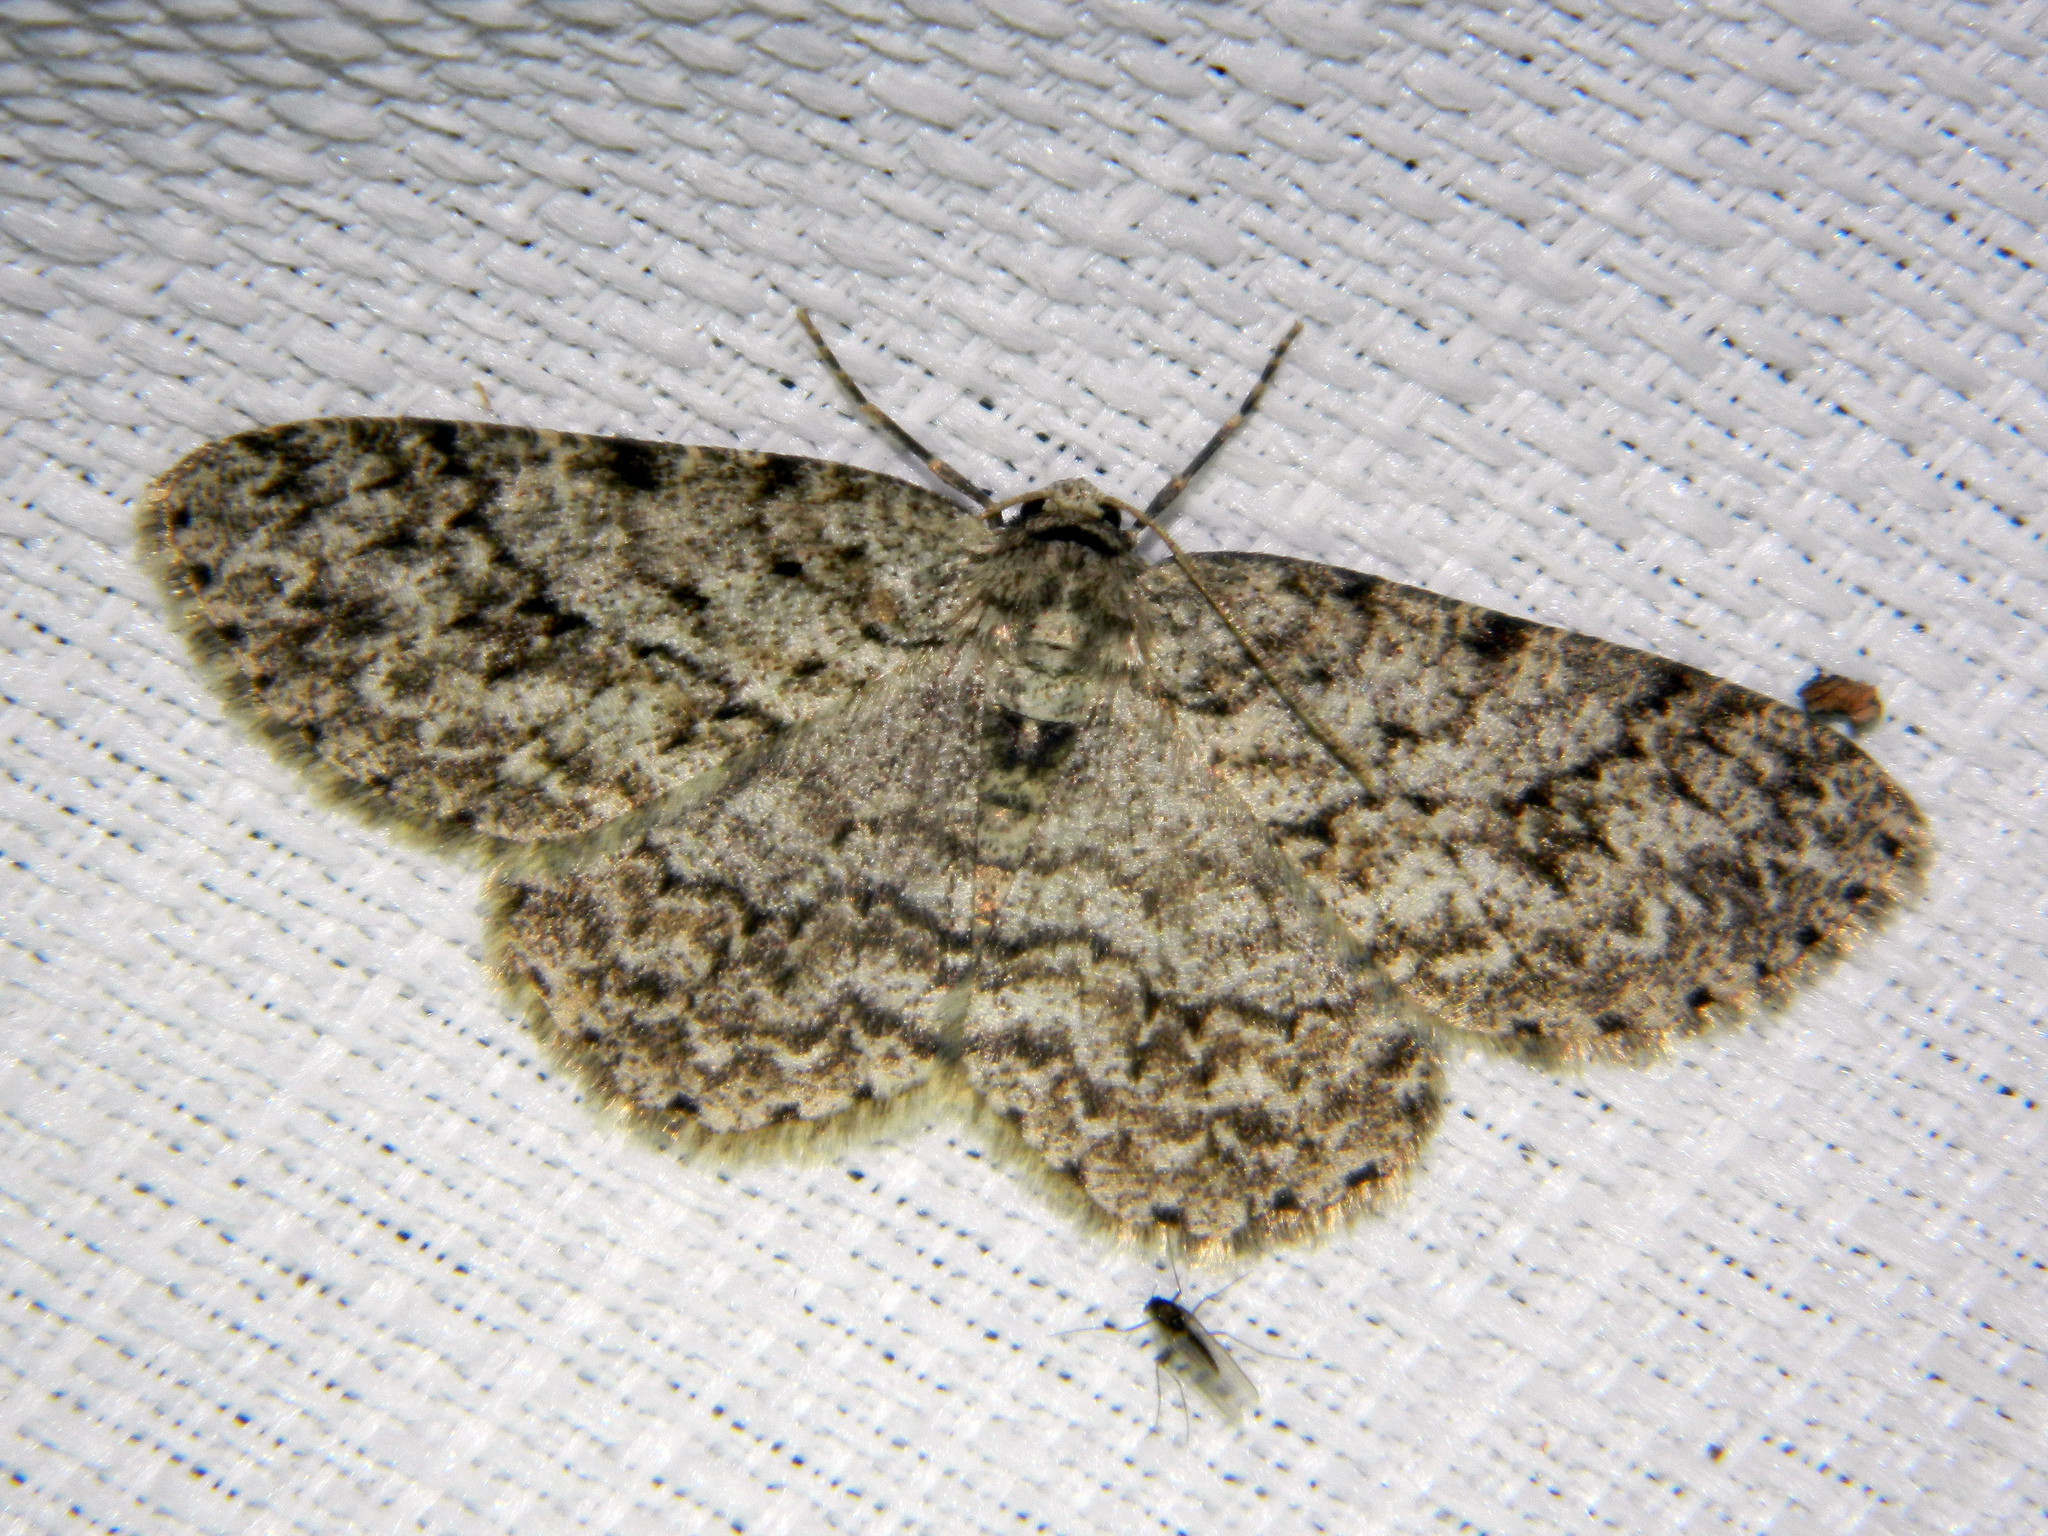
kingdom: Animalia
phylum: Arthropoda
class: Insecta
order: Lepidoptera
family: Geometridae
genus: Ectropis
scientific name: Ectropis crepuscularia
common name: Engrailed
